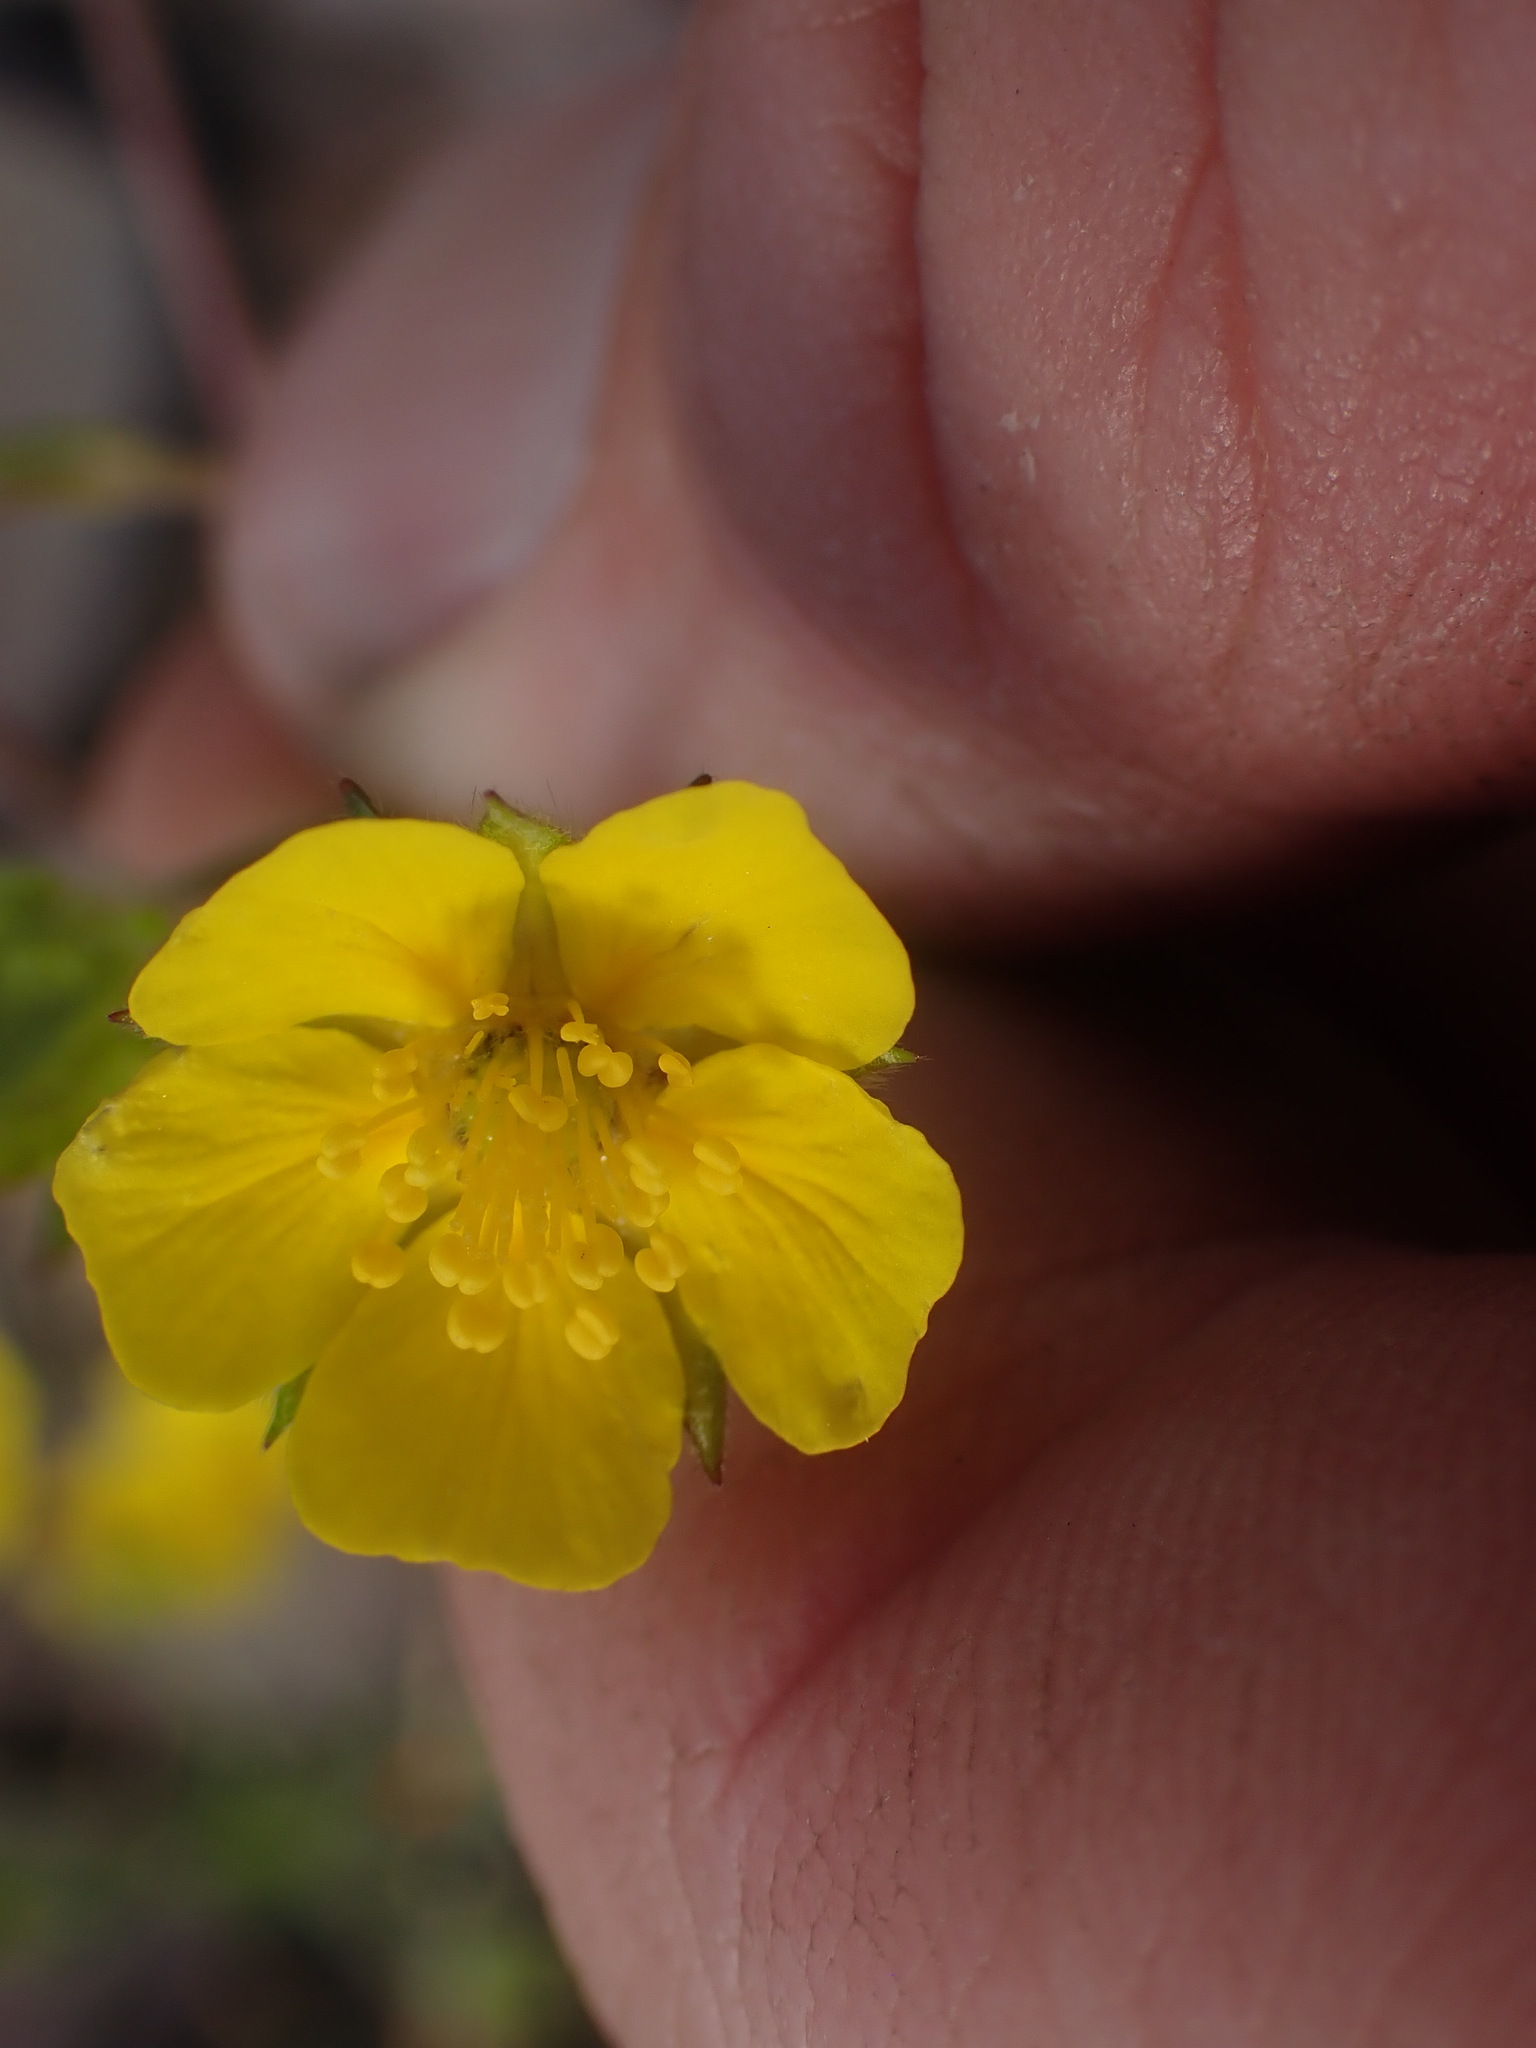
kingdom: Plantae
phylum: Tracheophyta
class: Magnoliopsida
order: Rosales
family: Rosaceae
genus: Potentilla
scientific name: Potentilla glaucophylla
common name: Blue-leaved cinquefoil
